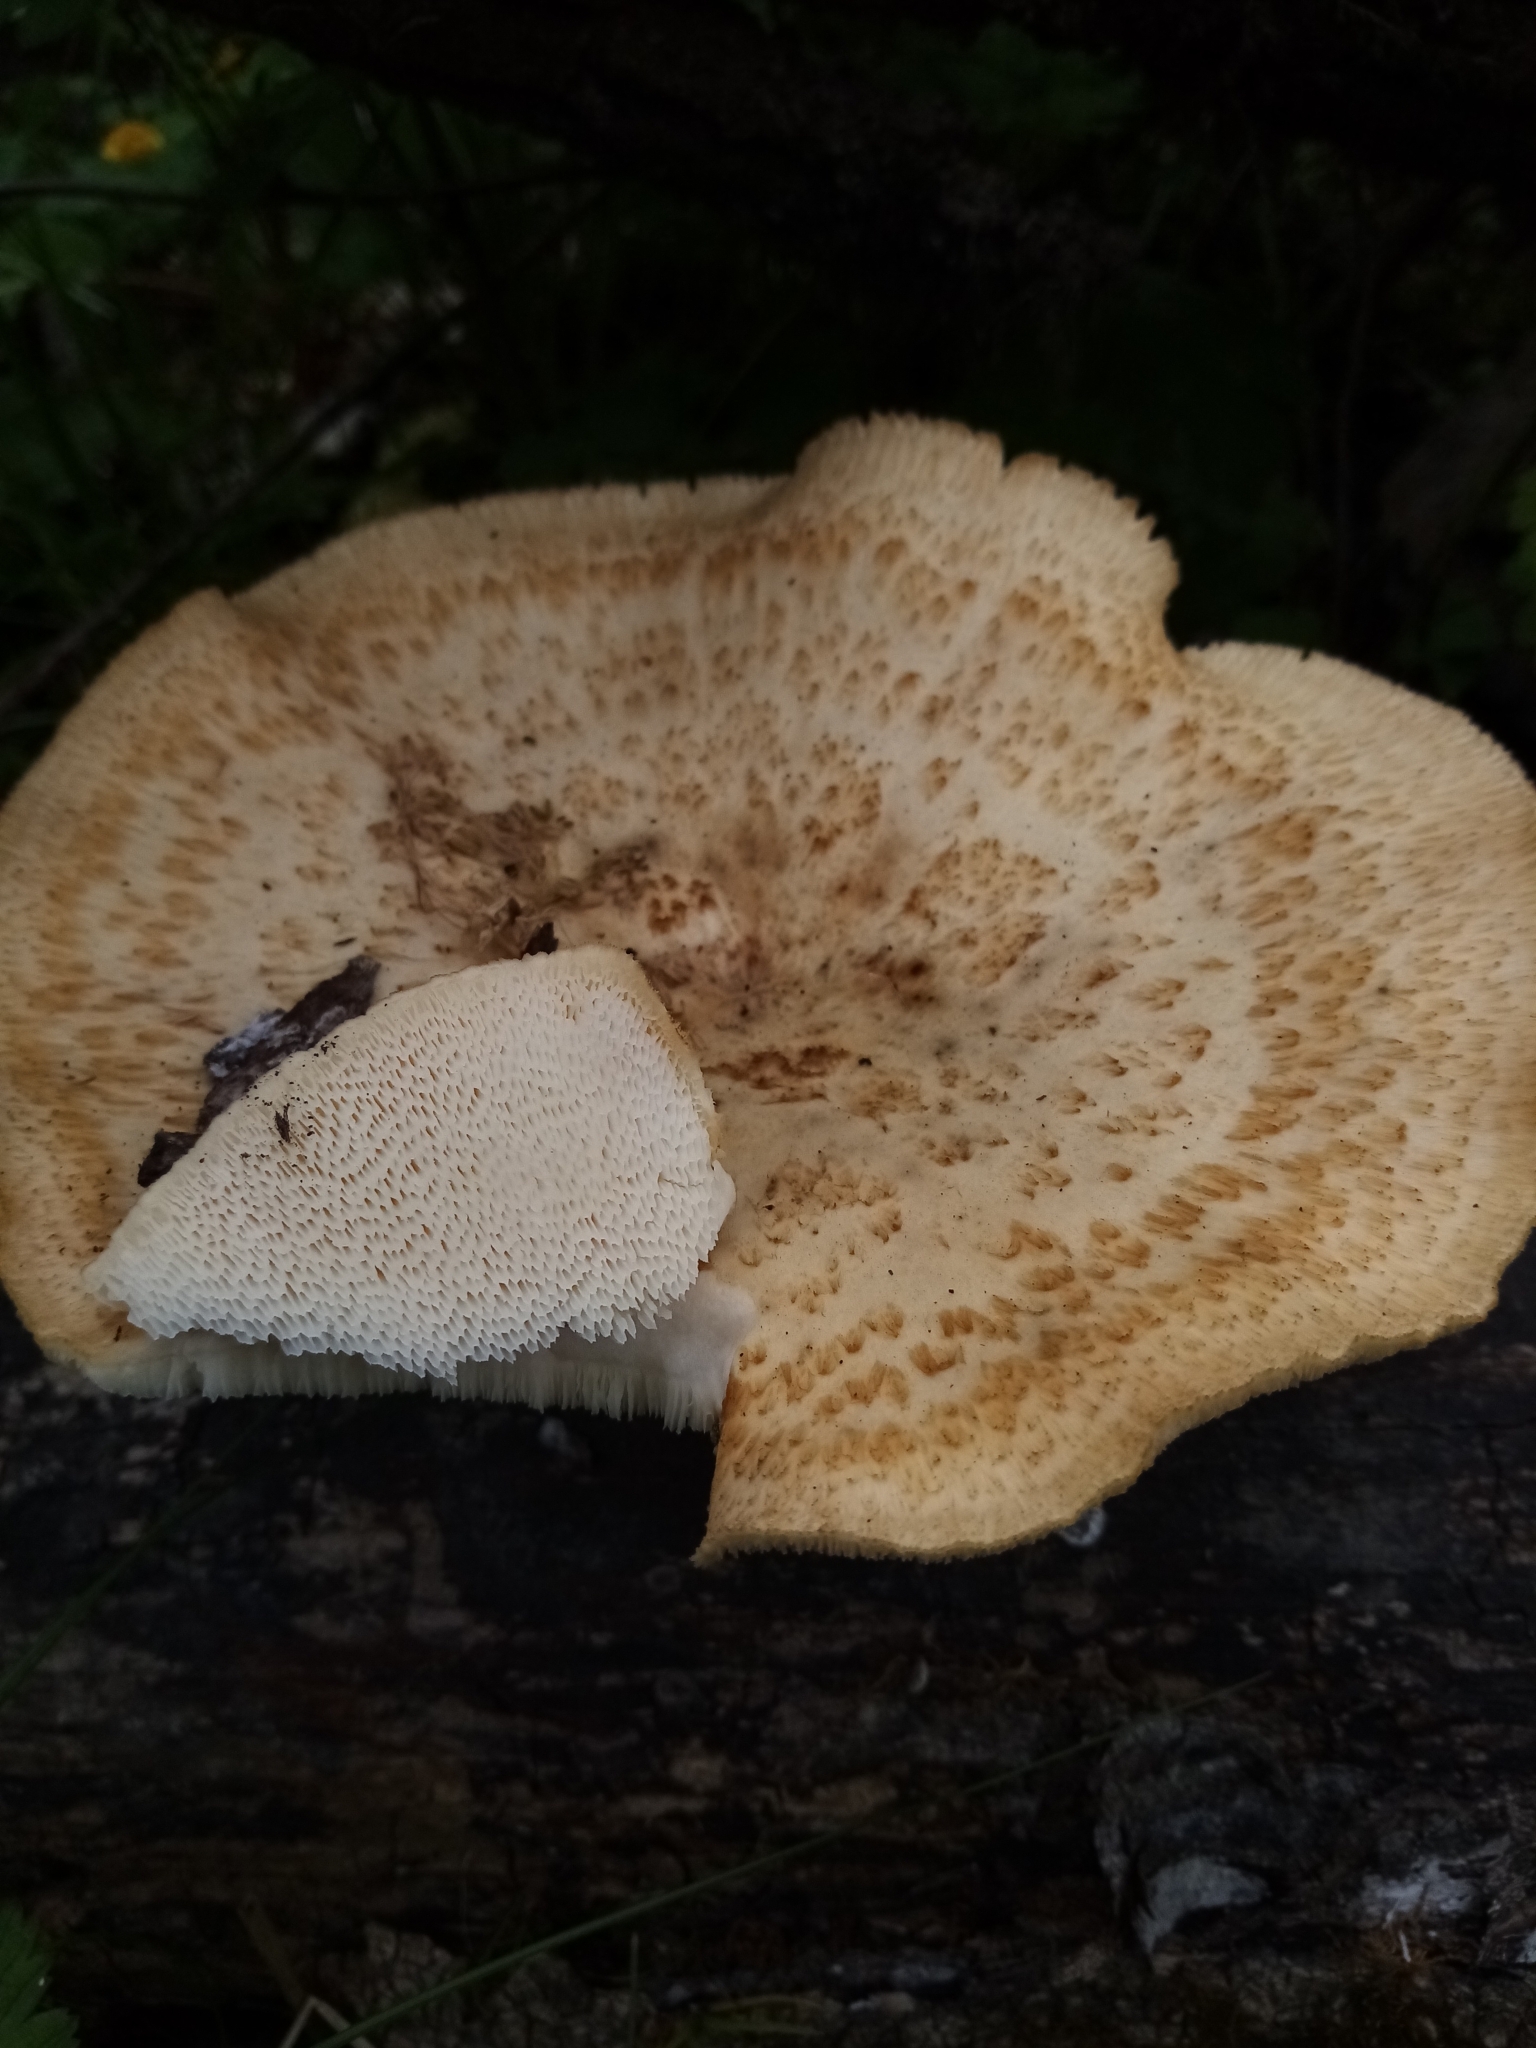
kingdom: Fungi
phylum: Basidiomycota
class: Agaricomycetes
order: Polyporales
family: Polyporaceae
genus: Polyporus
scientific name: Polyporus tuberaster
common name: Tuberous polypore
